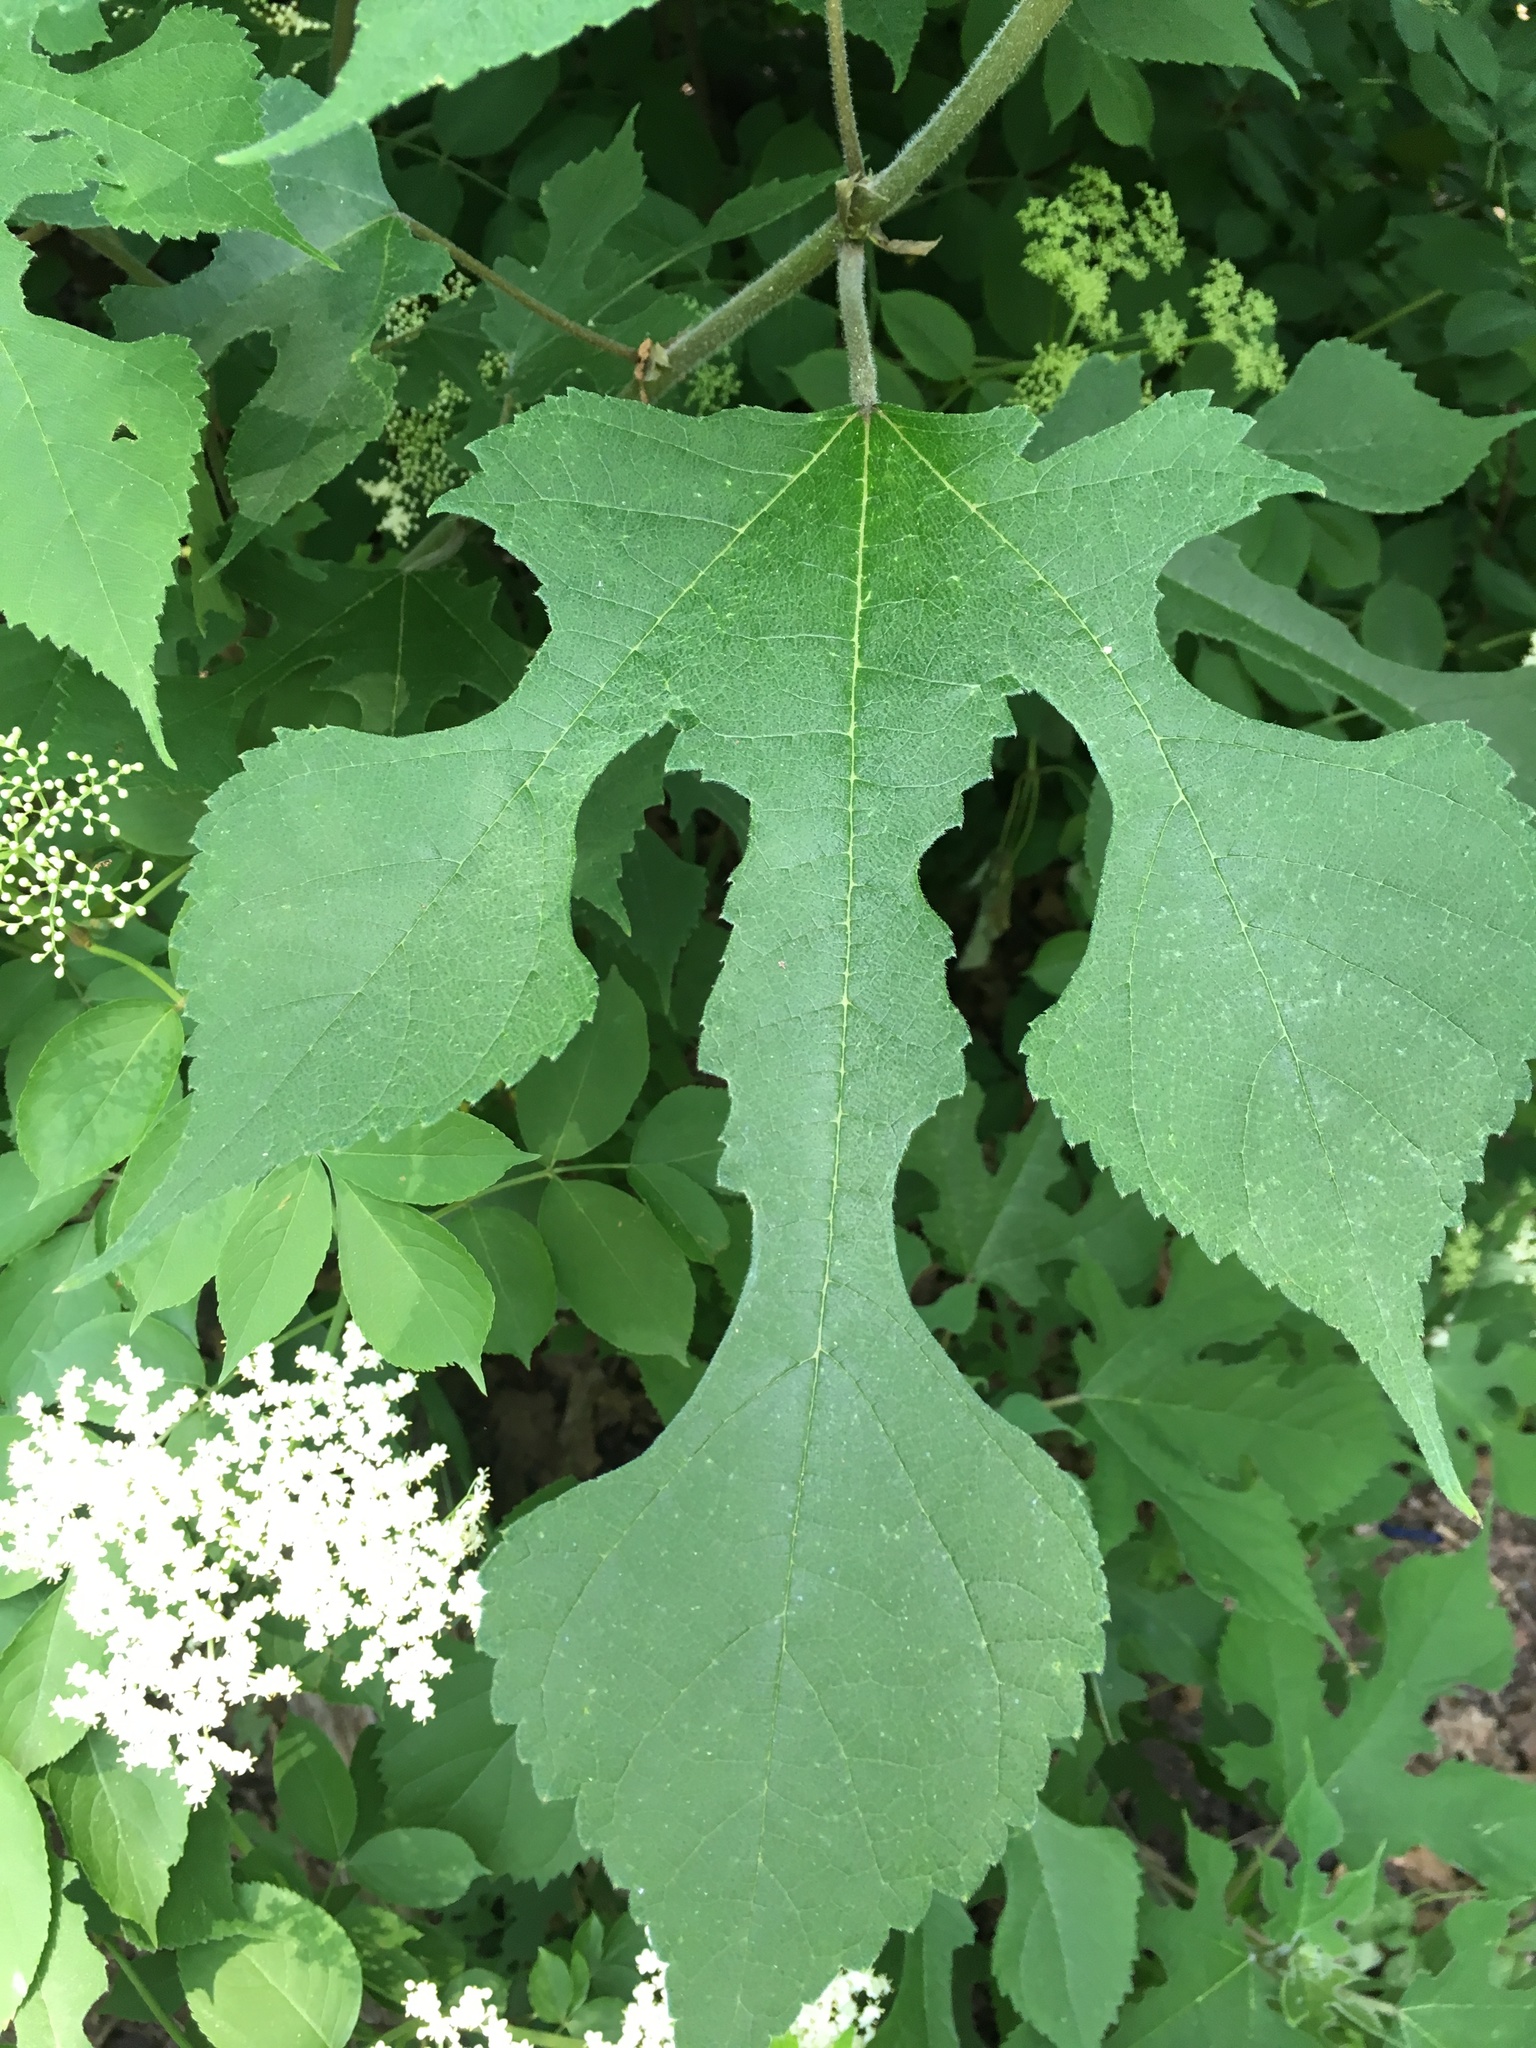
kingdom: Plantae
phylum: Tracheophyta
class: Magnoliopsida
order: Rosales
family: Moraceae
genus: Broussonetia
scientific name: Broussonetia papyrifera
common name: Paper mulberry
